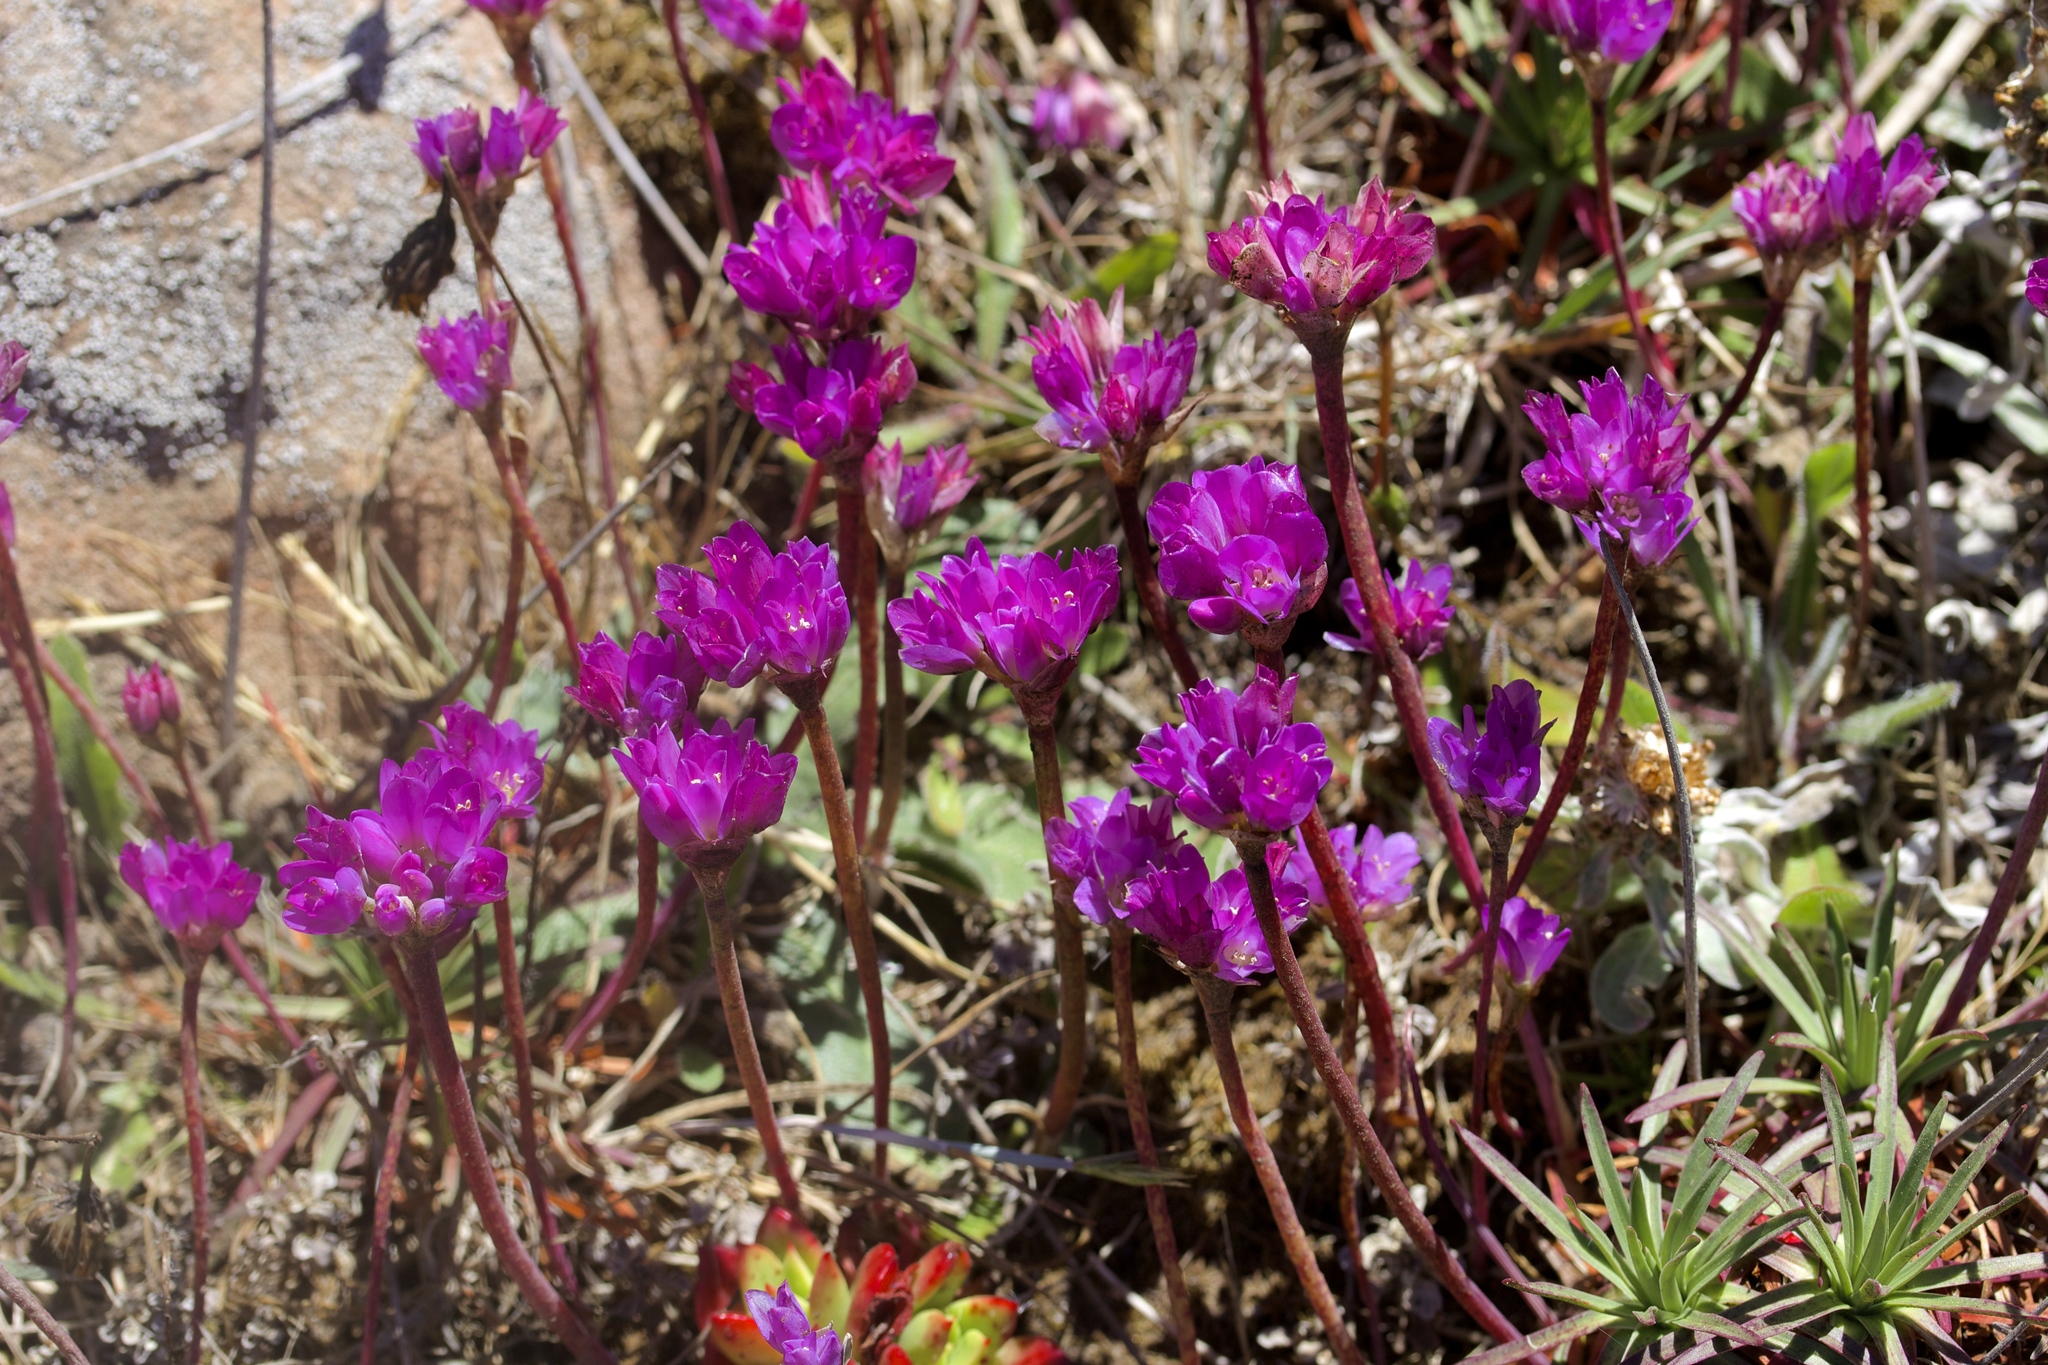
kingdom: Plantae
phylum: Tracheophyta
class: Liliopsida
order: Asparagales
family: Amaryllidaceae
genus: Allium
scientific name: Allium dichlamydeum
